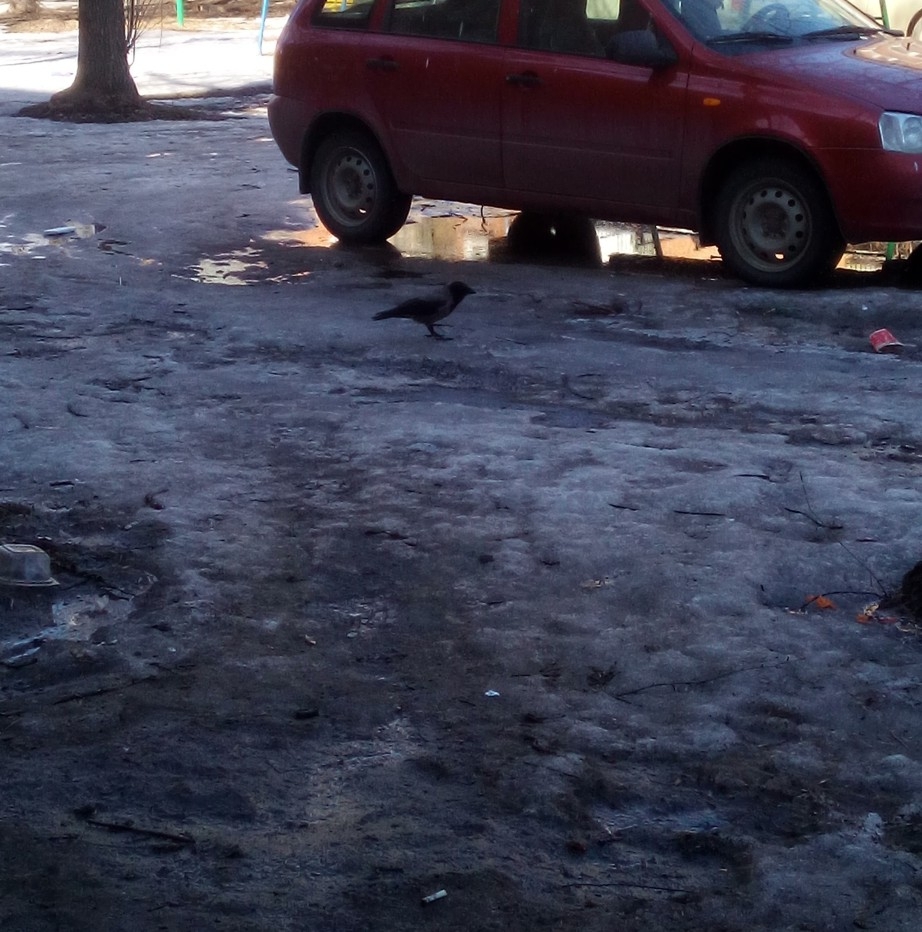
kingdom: Animalia
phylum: Chordata
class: Aves
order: Passeriformes
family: Corvidae
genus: Corvus
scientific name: Corvus cornix
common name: Hooded crow
